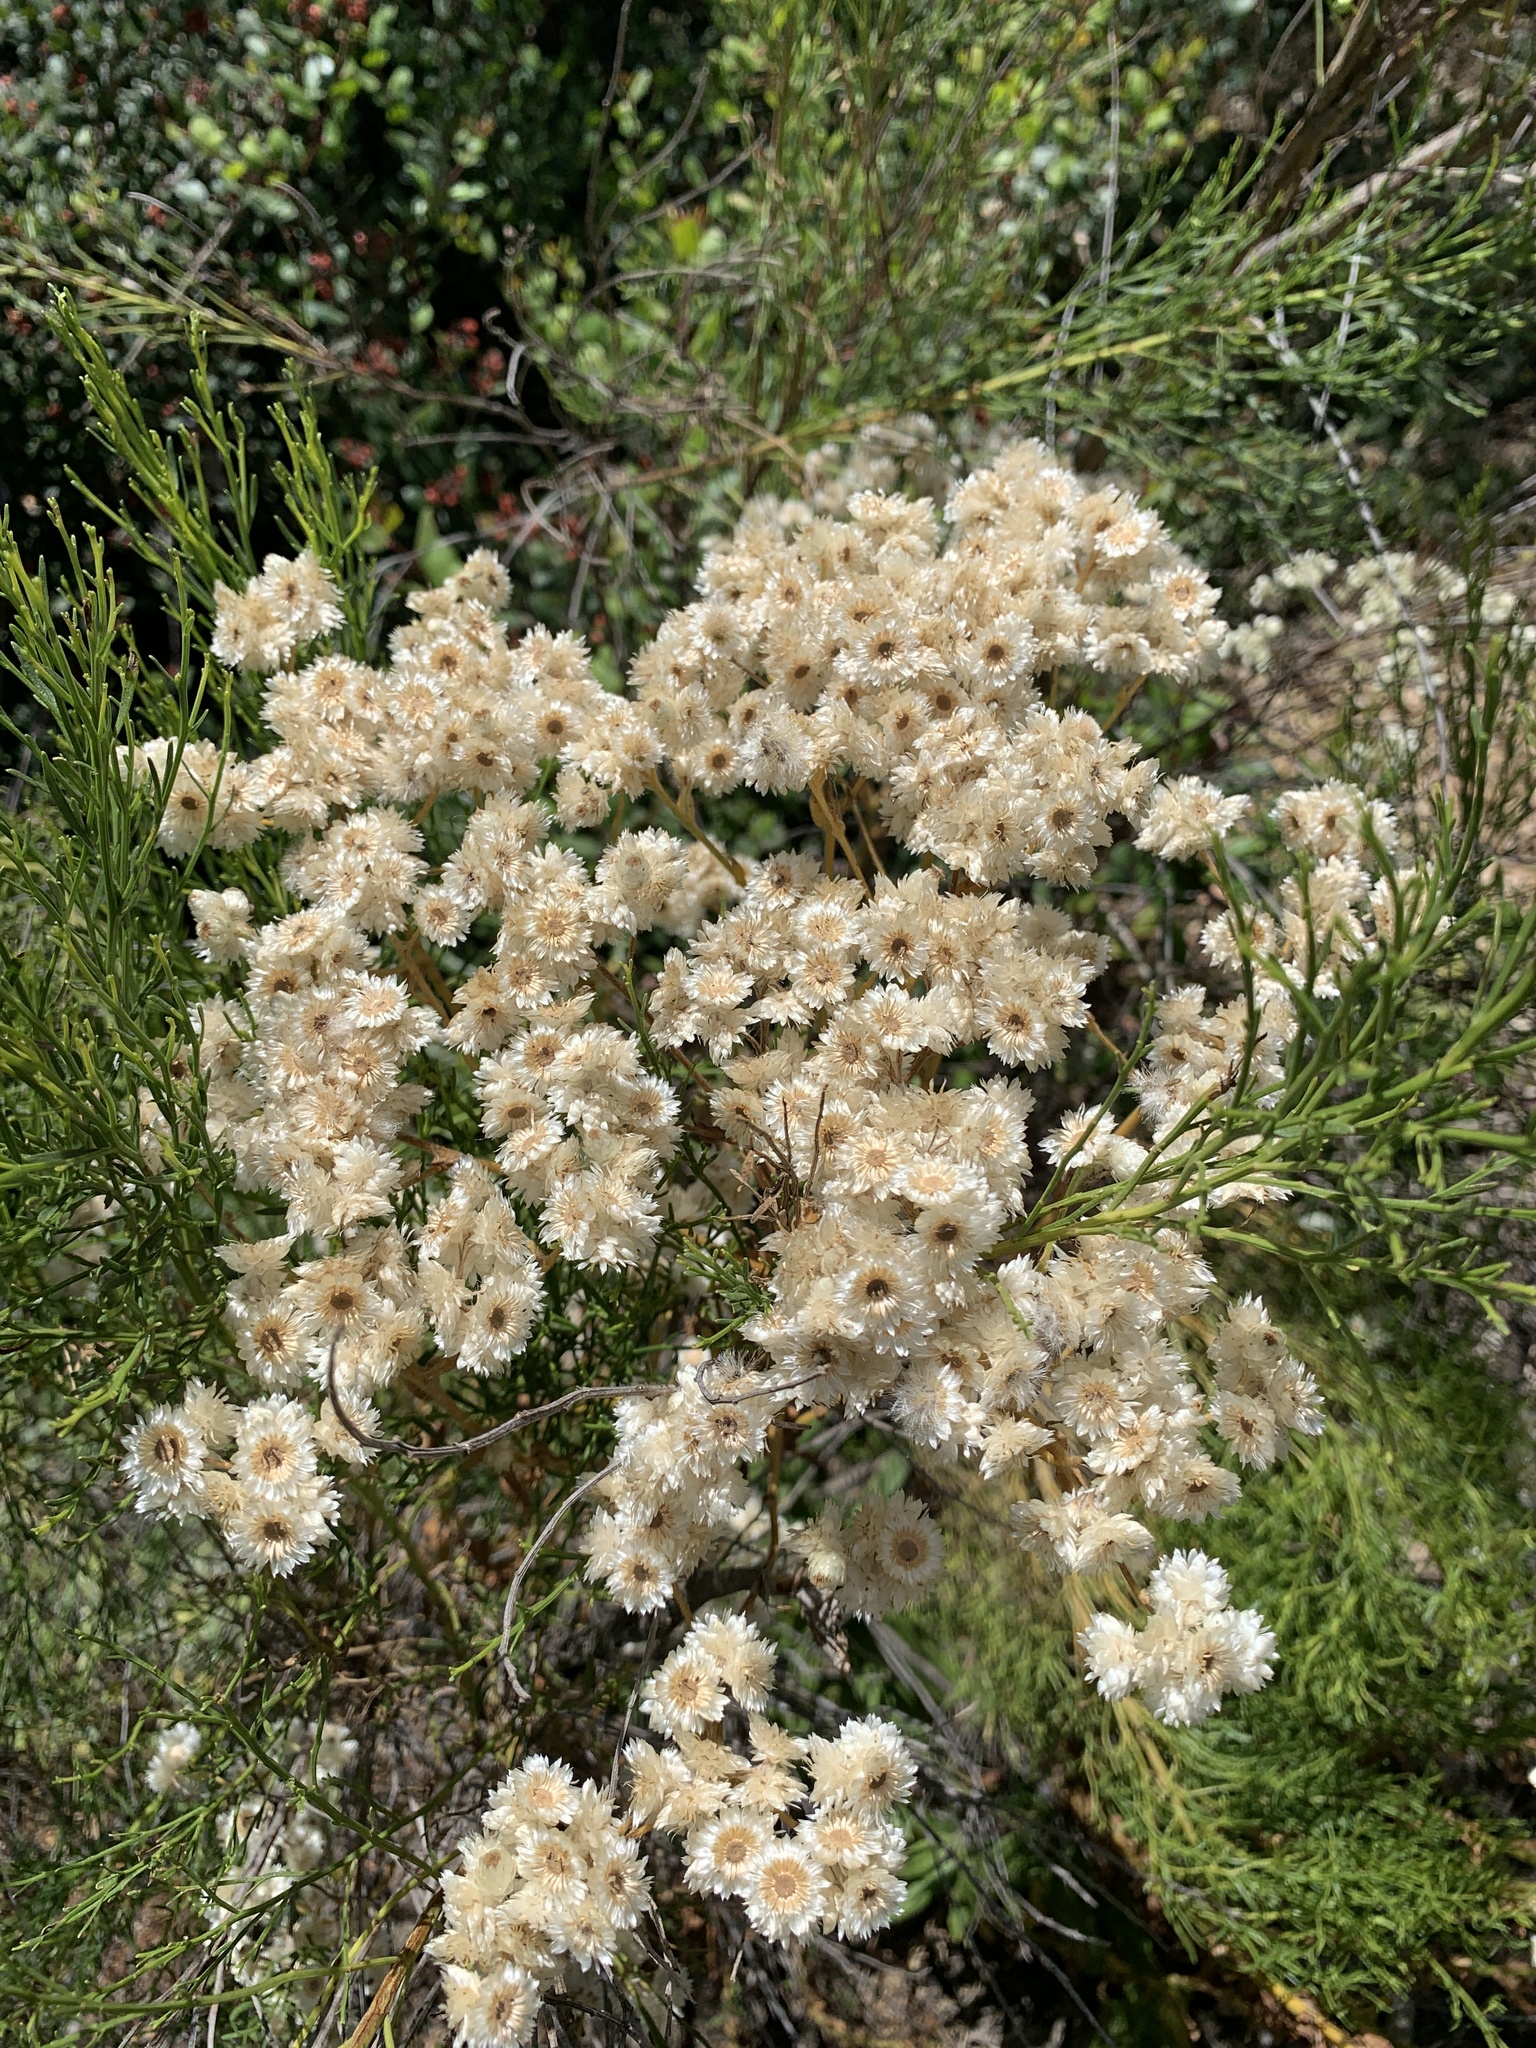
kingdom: Plantae
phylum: Tracheophyta
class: Magnoliopsida
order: Asterales
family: Asteraceae
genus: Pseudognaphalium
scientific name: Pseudognaphalium californicum
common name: California rabbit-tobacco
